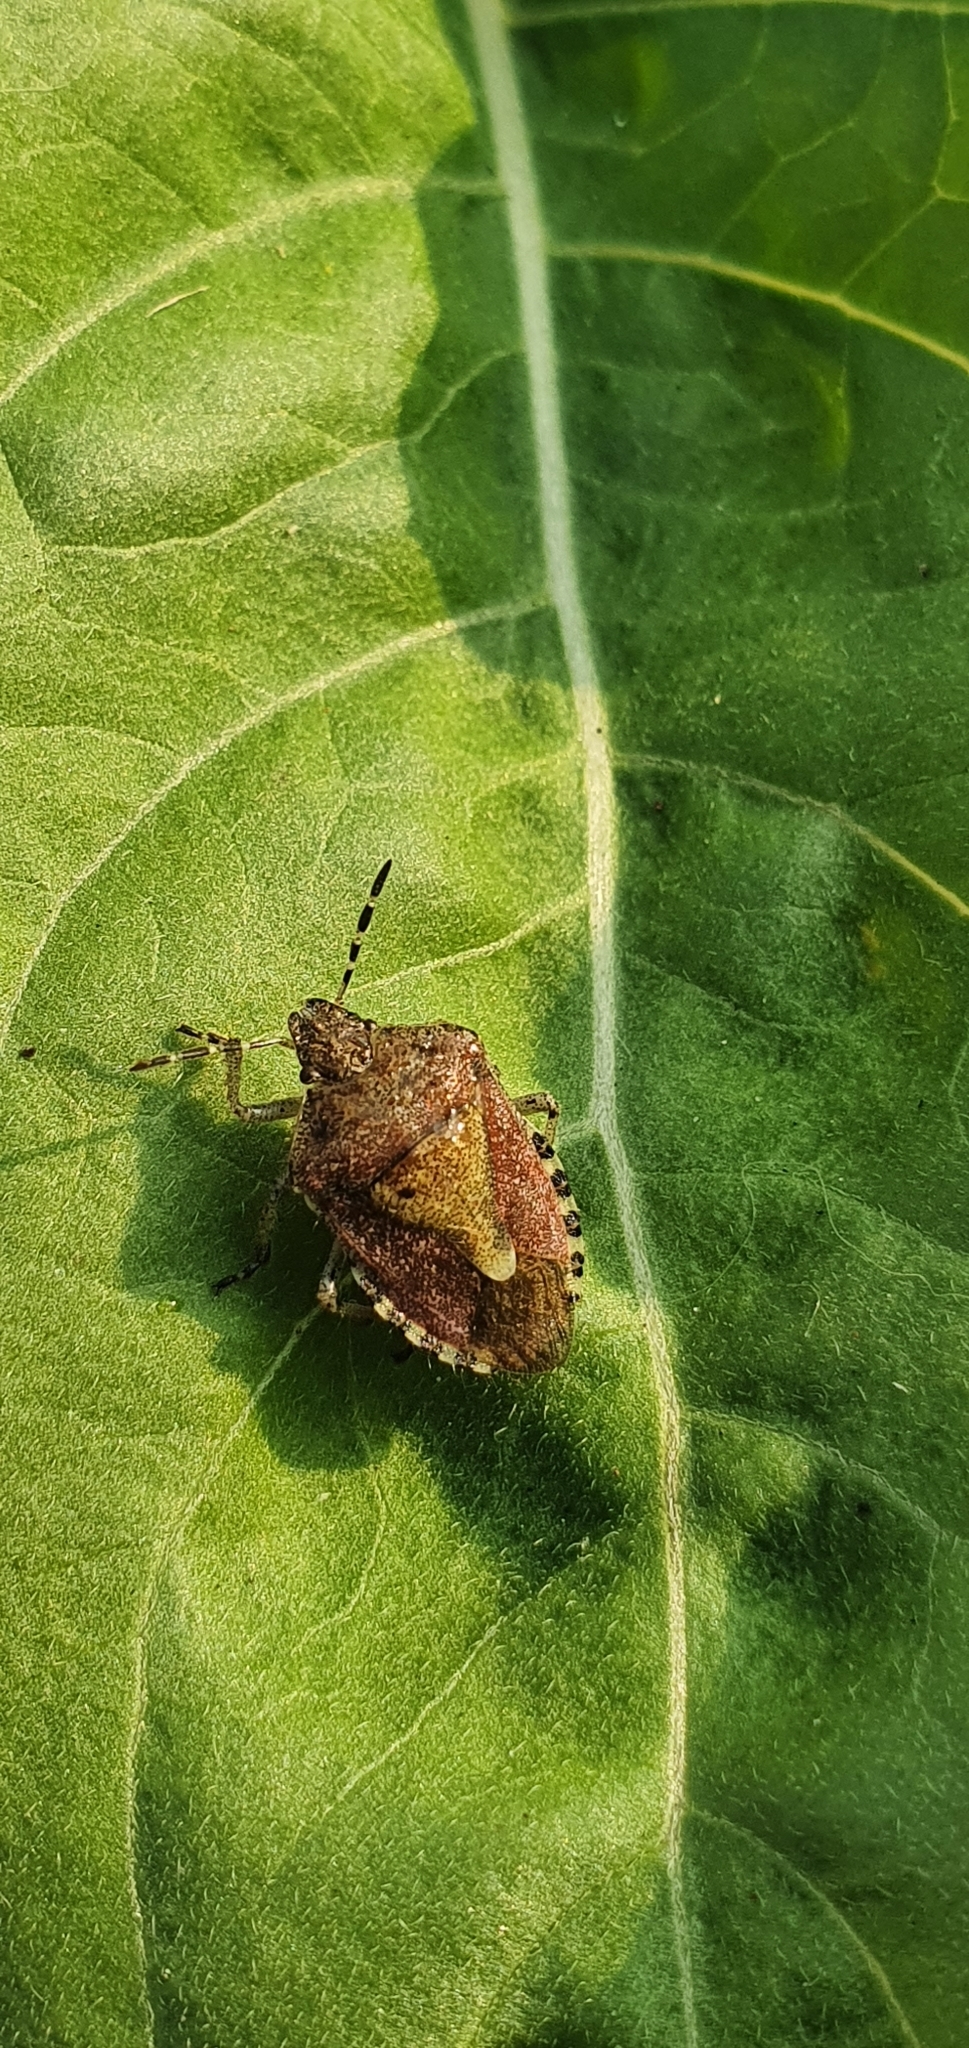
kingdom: Animalia
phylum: Arthropoda
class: Insecta
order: Hemiptera
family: Pentatomidae
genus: Dolycoris
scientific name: Dolycoris baccarum
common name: Sloe bug
